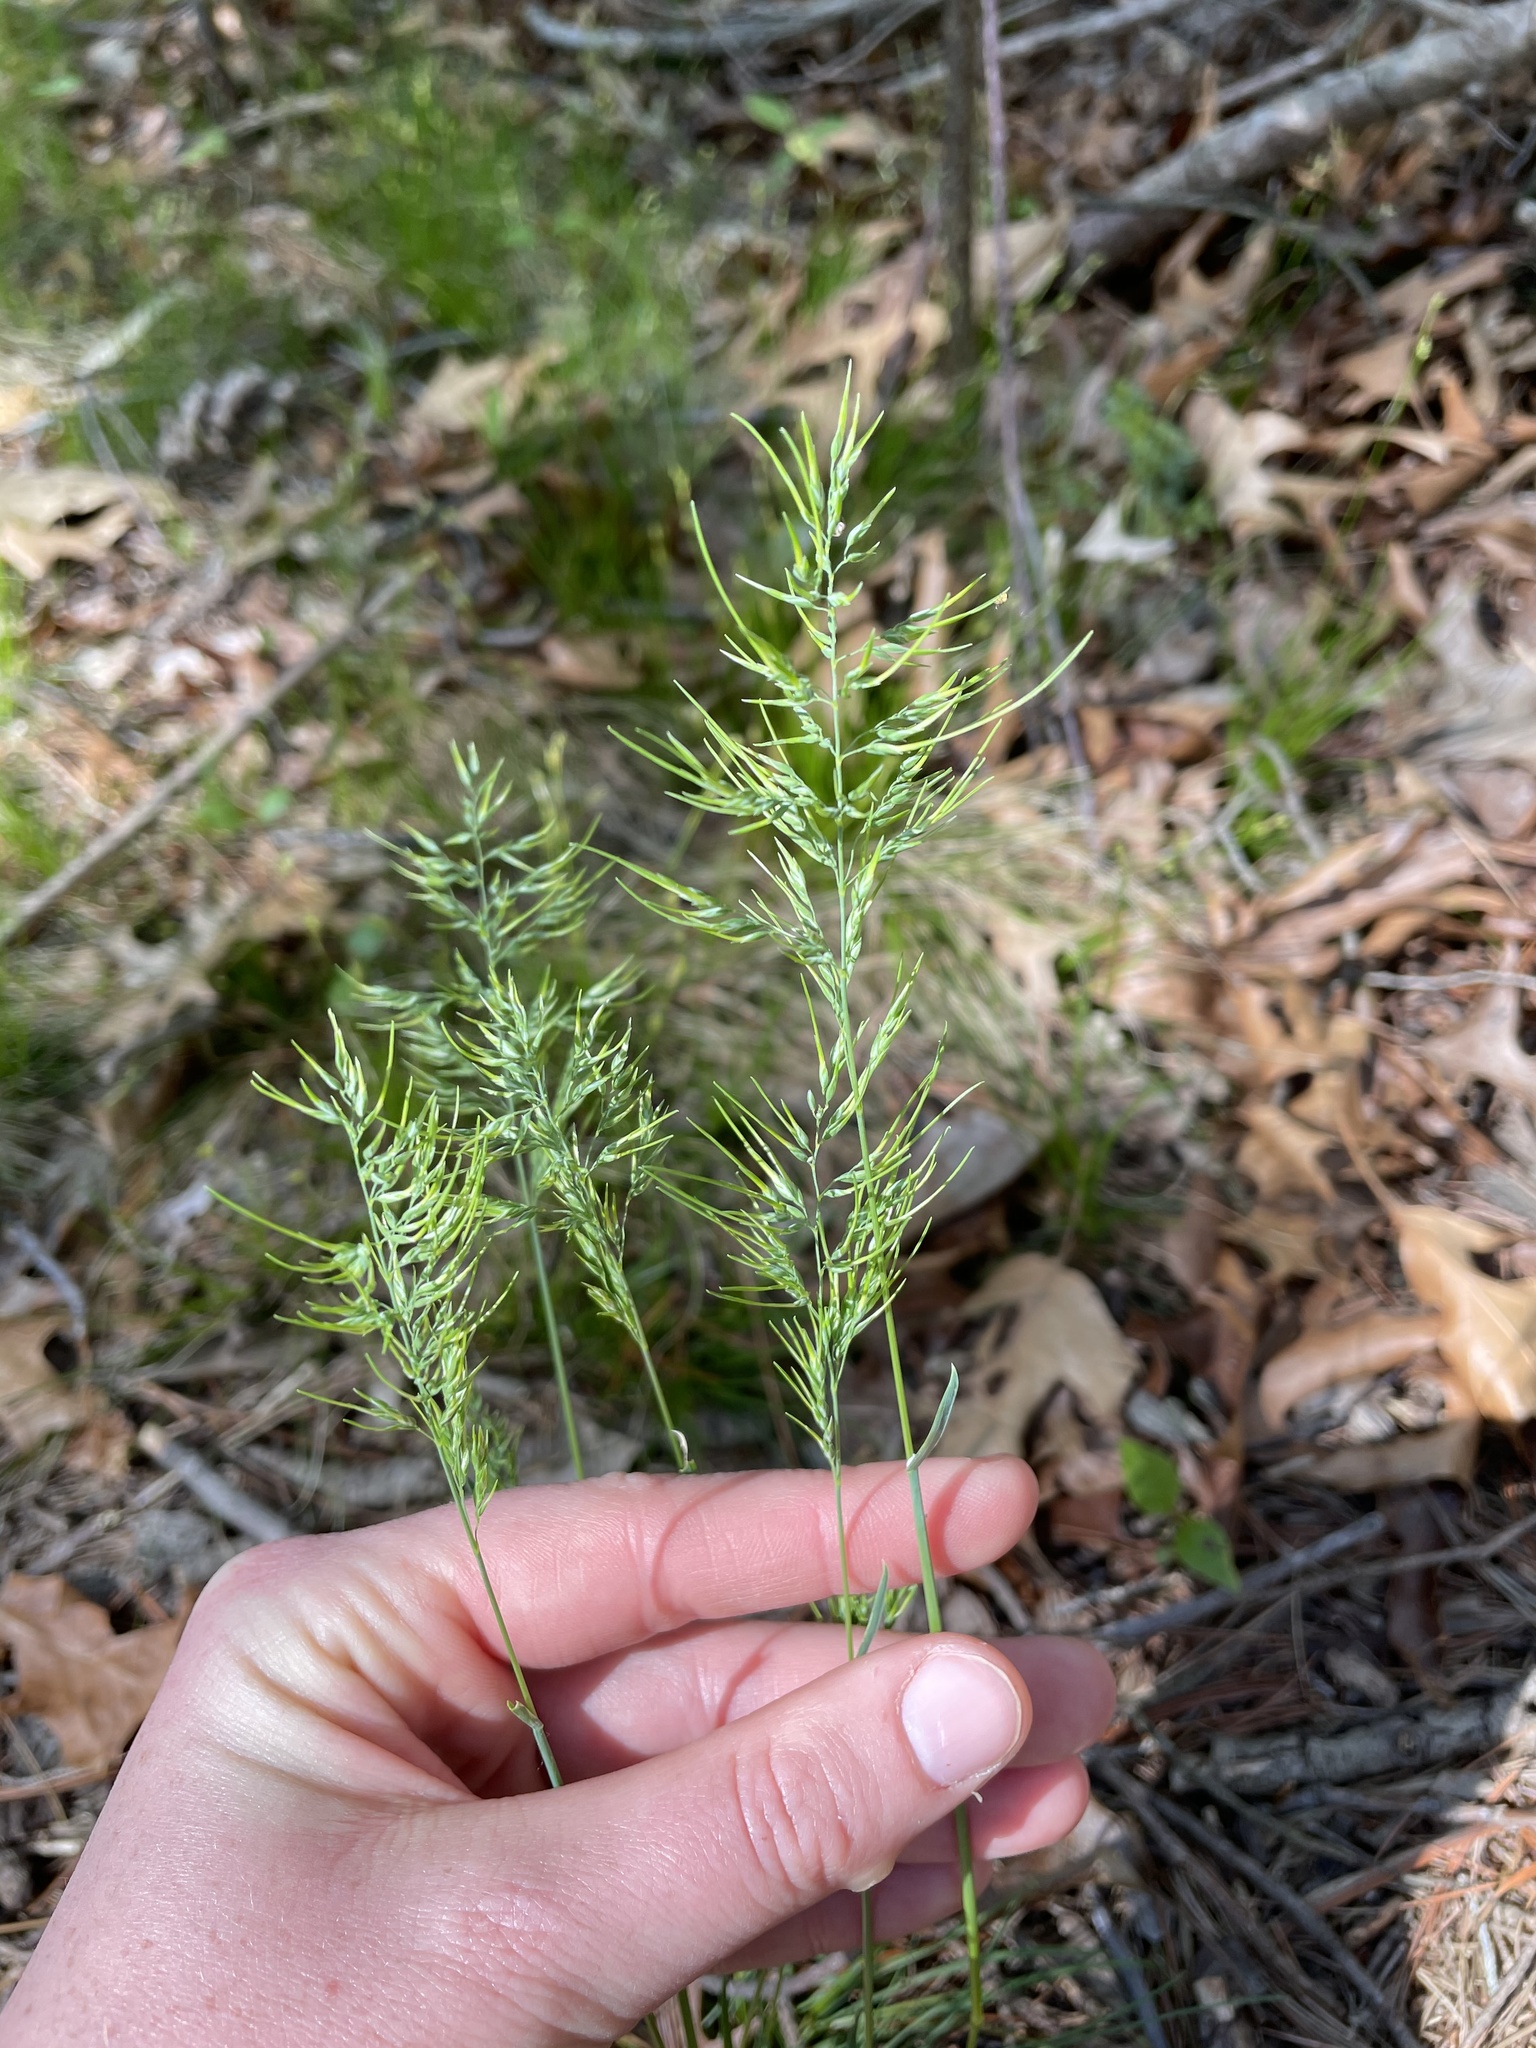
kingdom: Plantae
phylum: Tracheophyta
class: Liliopsida
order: Poales
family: Poaceae
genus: Poa
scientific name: Poa bulbosa
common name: Bulbous bluegrass
